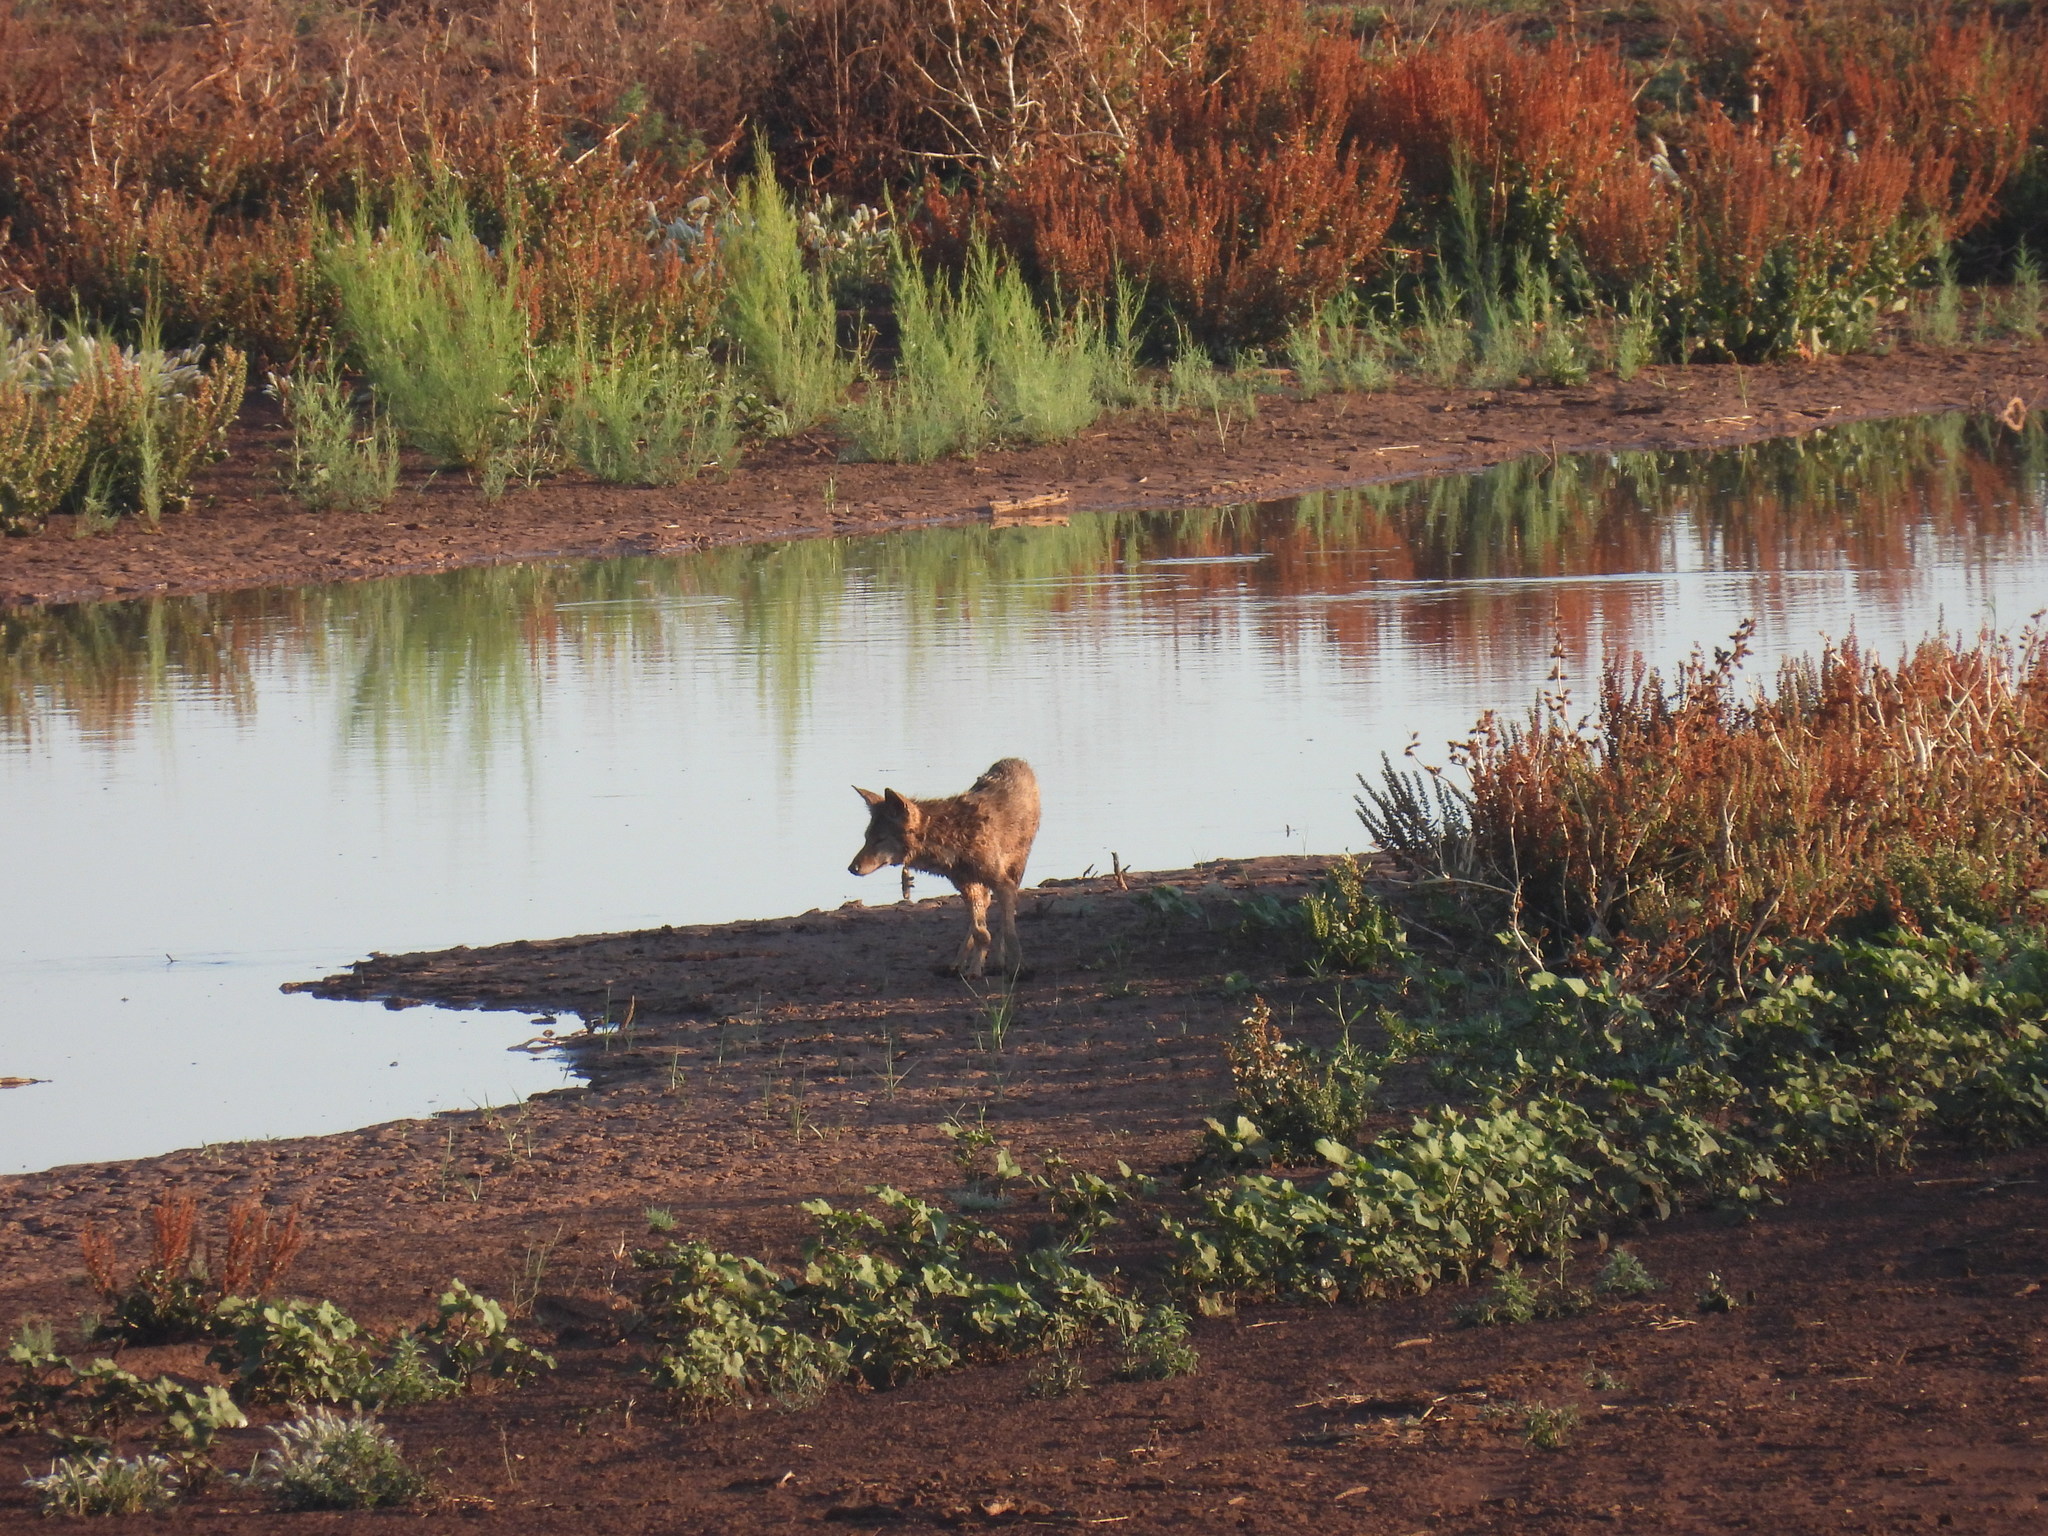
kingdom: Animalia
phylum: Chordata
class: Mammalia
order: Carnivora
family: Canidae
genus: Canis
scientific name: Canis latrans
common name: Coyote
